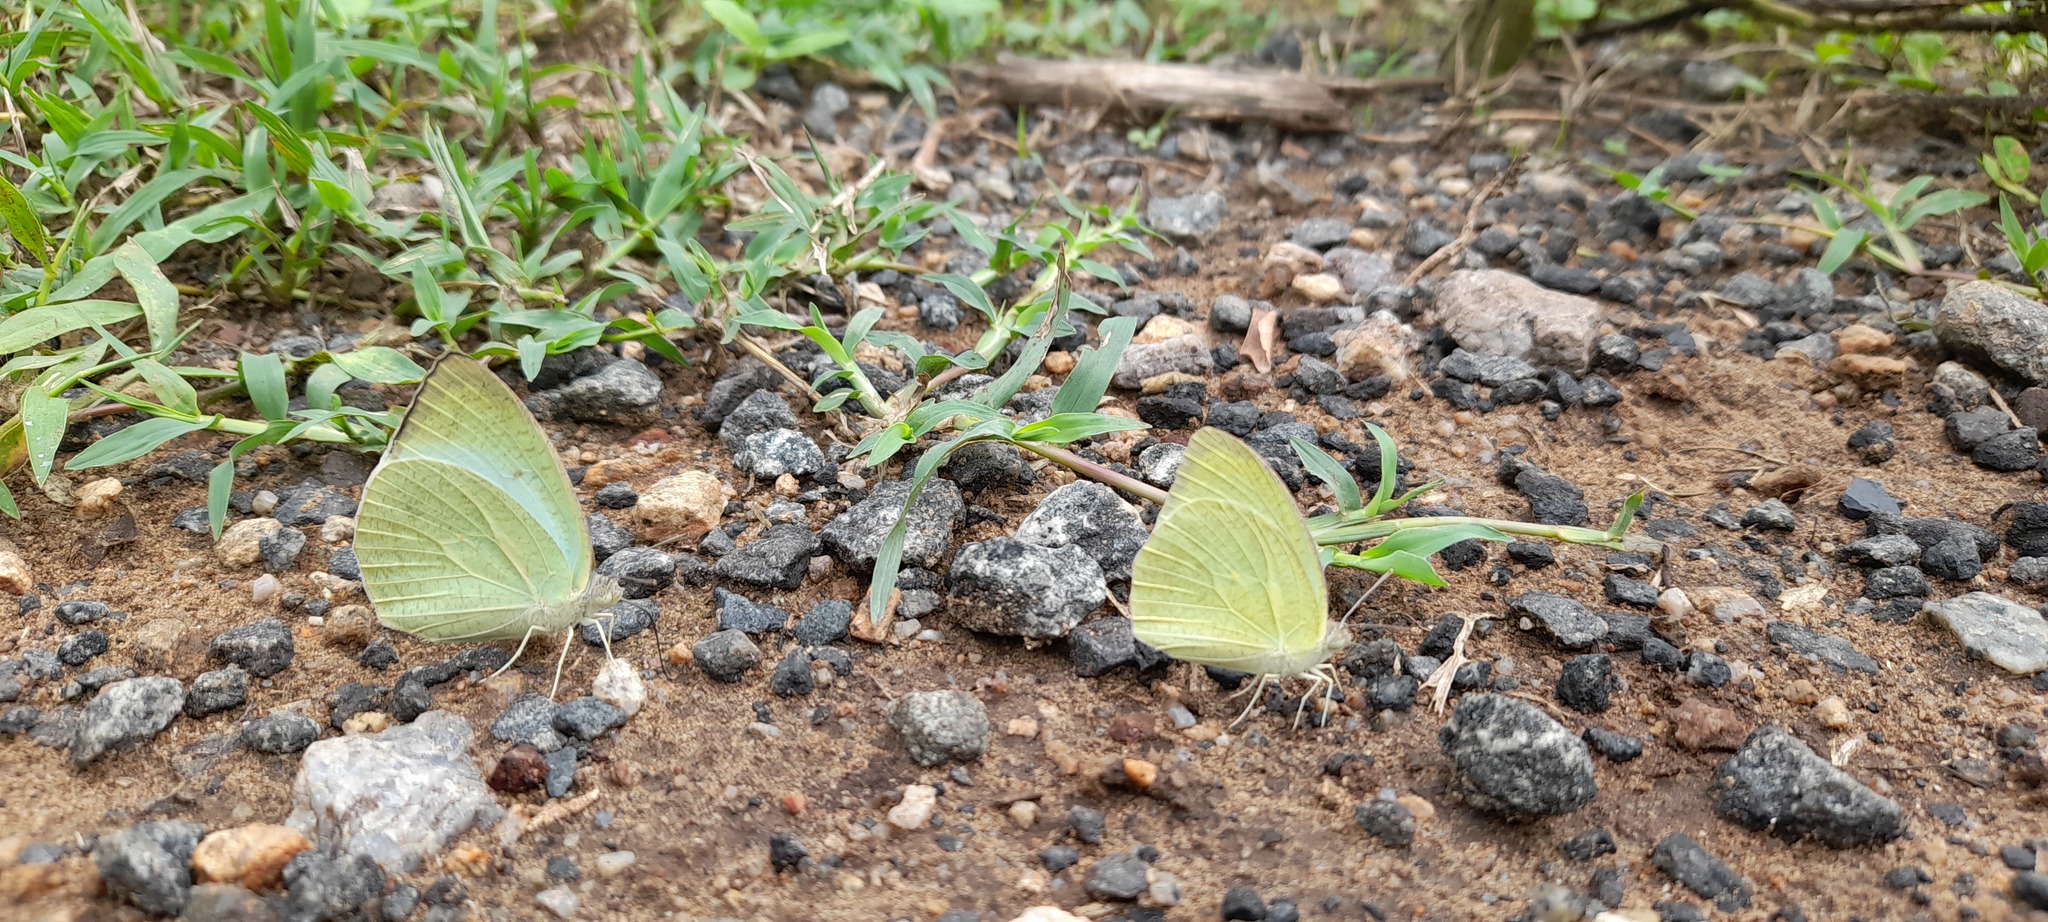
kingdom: Animalia
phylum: Arthropoda
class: Insecta
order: Lepidoptera
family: Pieridae
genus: Catopsilia
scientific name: Catopsilia pyranthe
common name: Mottled emigrant
